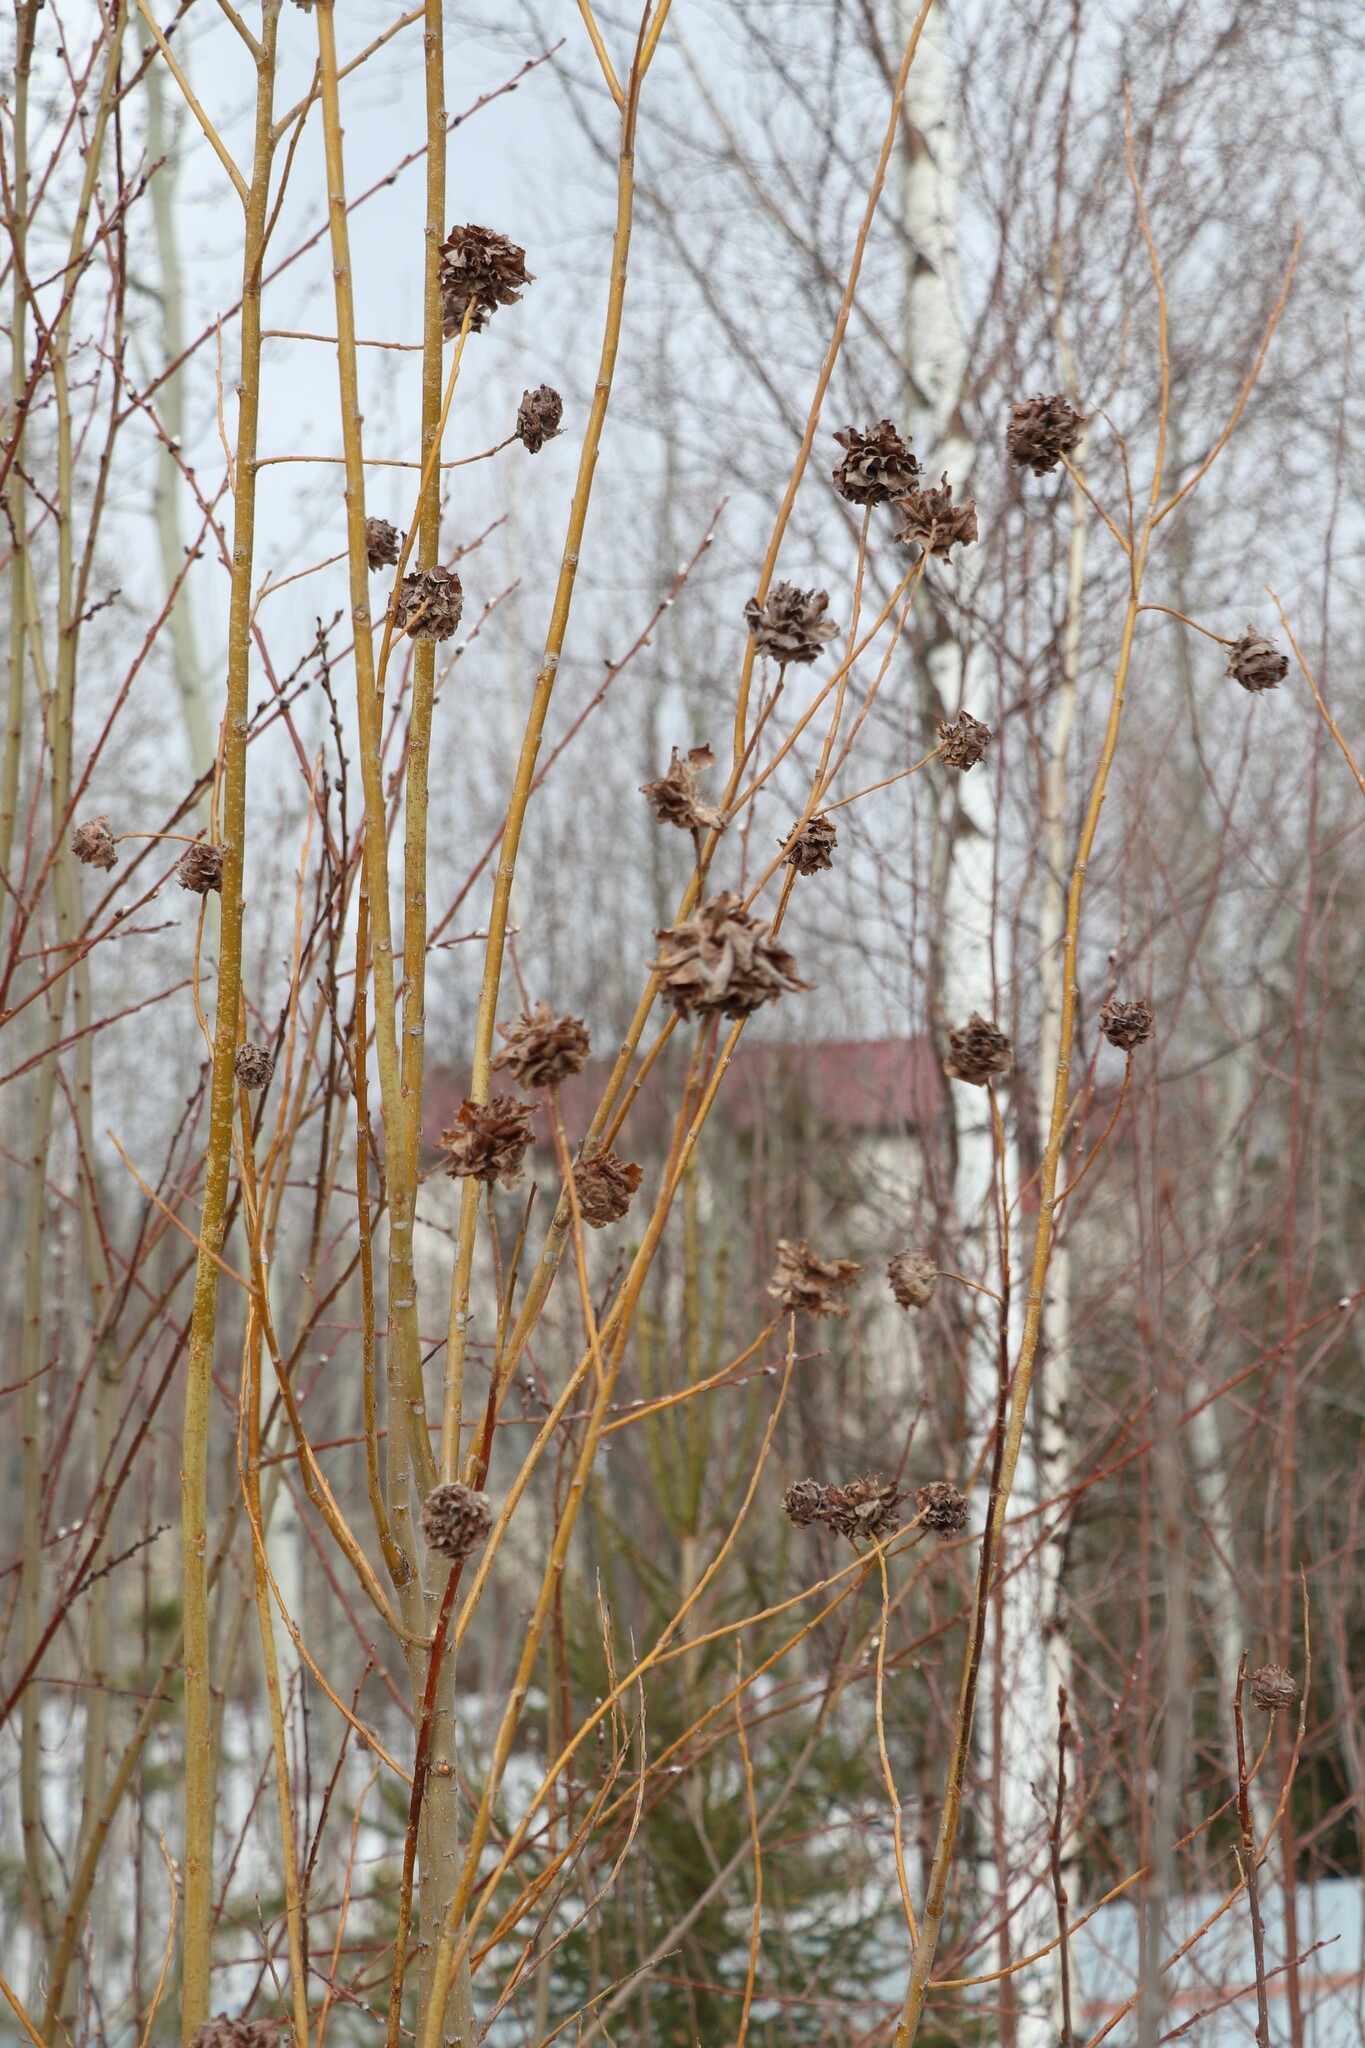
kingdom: Animalia
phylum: Arthropoda
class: Insecta
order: Diptera
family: Cecidomyiidae
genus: Rabdophaga
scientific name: Rabdophaga rosaria
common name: Willow rose gall midge
